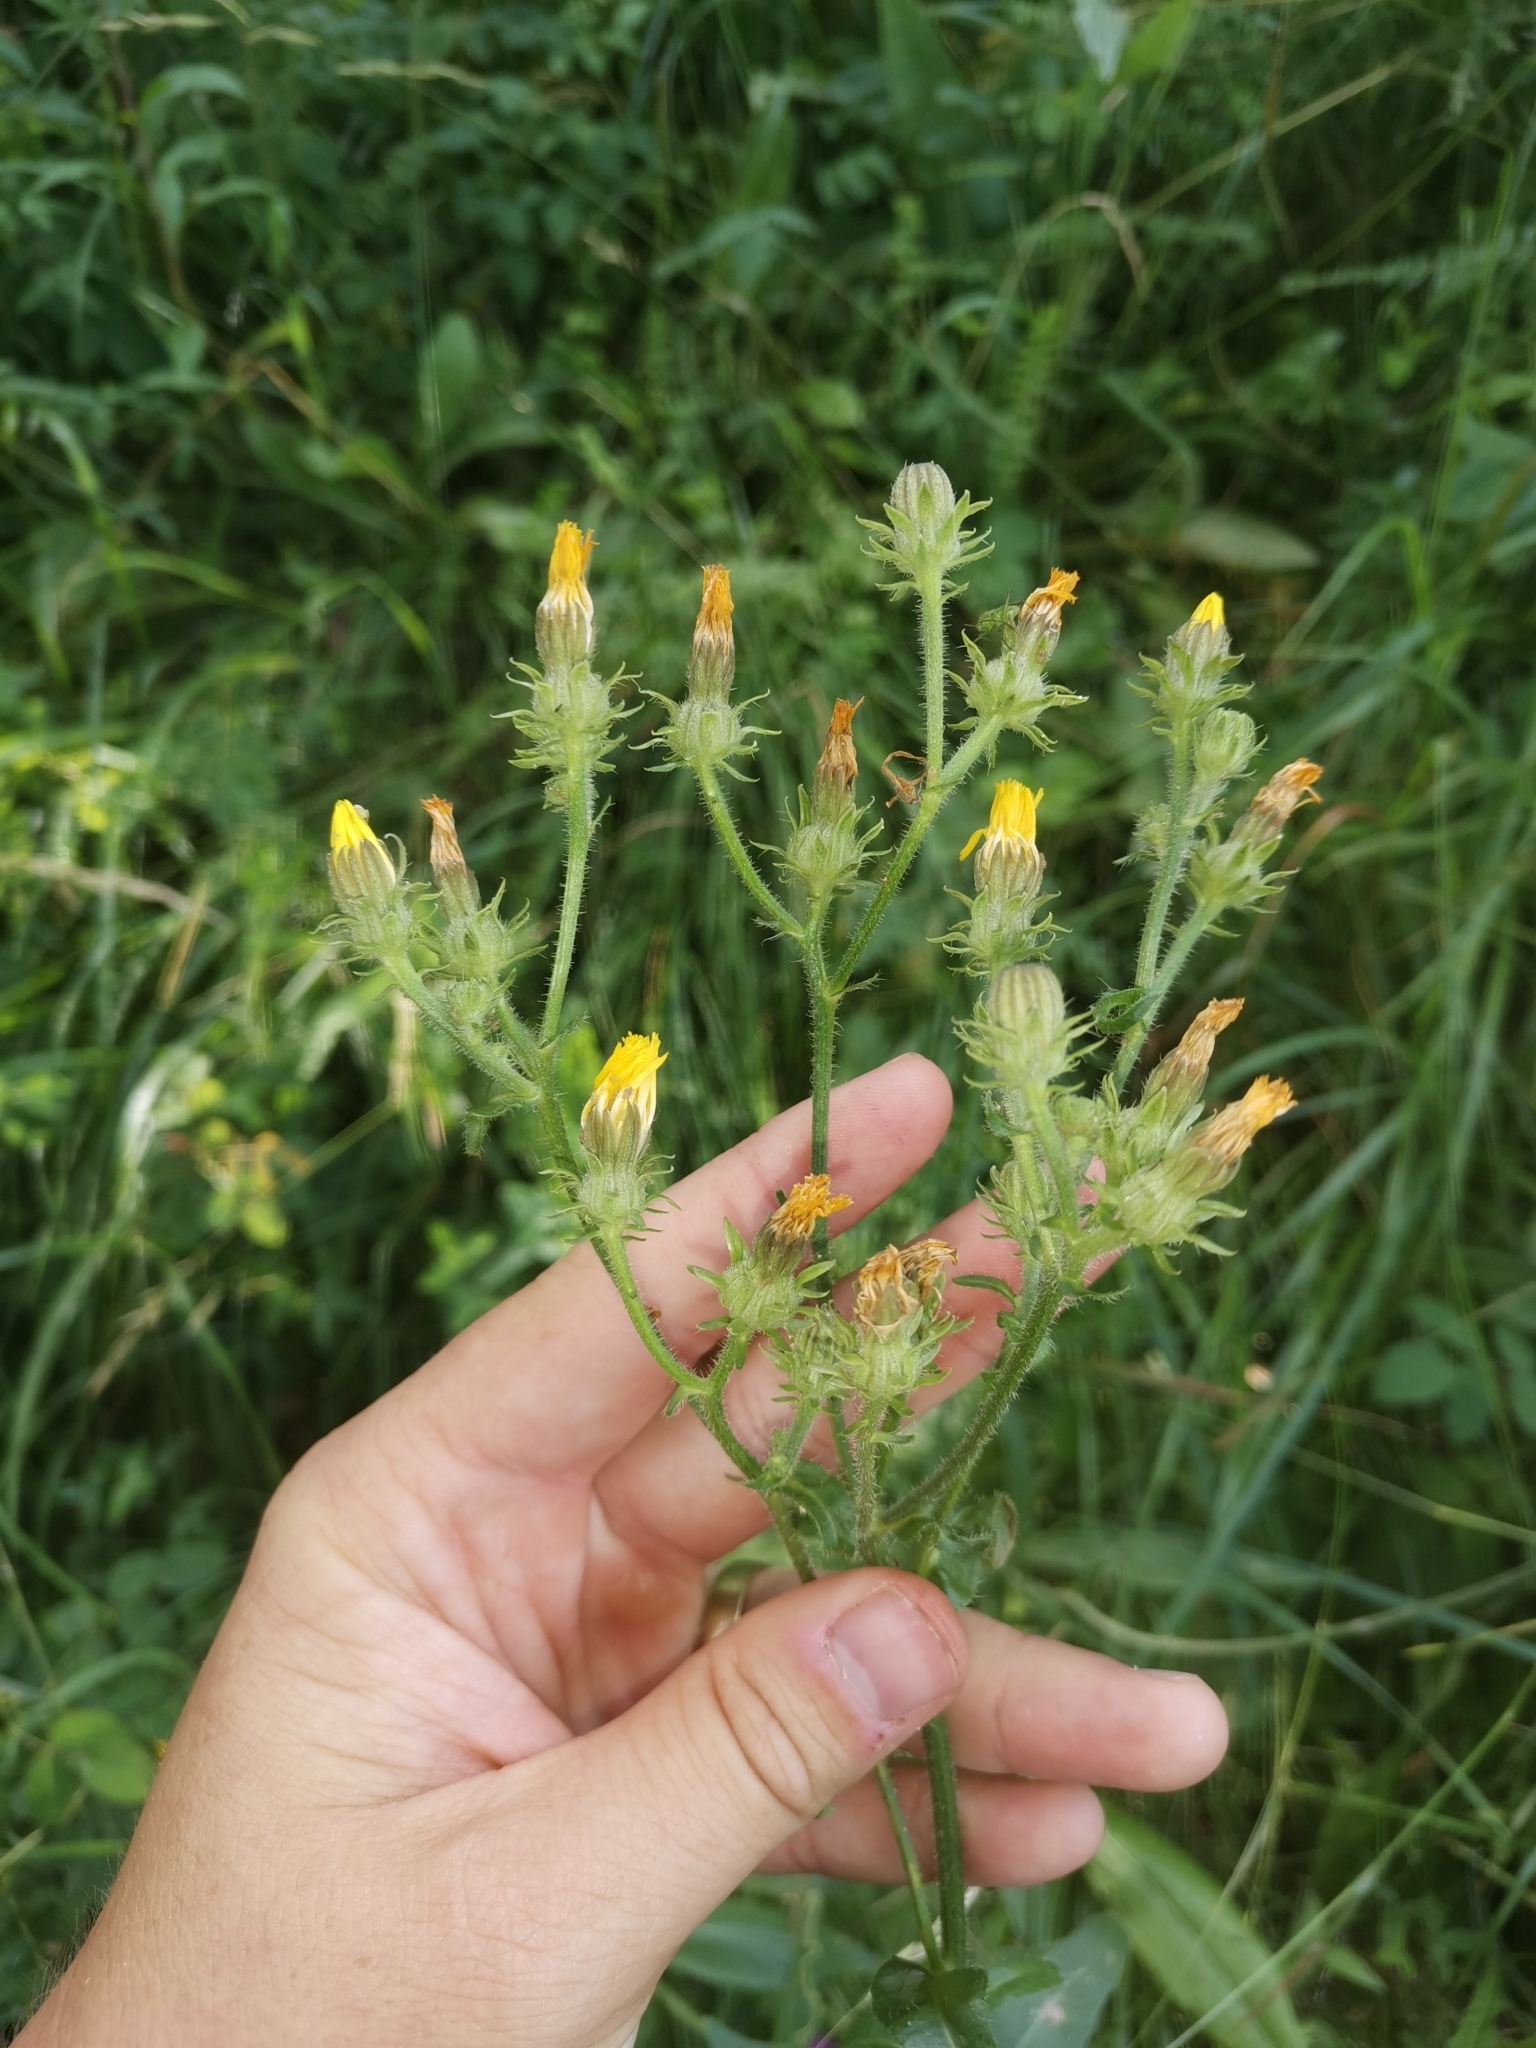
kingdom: Plantae
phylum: Tracheophyta
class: Magnoliopsida
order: Asterales
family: Asteraceae
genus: Picris
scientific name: Picris hieracioides
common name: Hawkweed oxtongue
